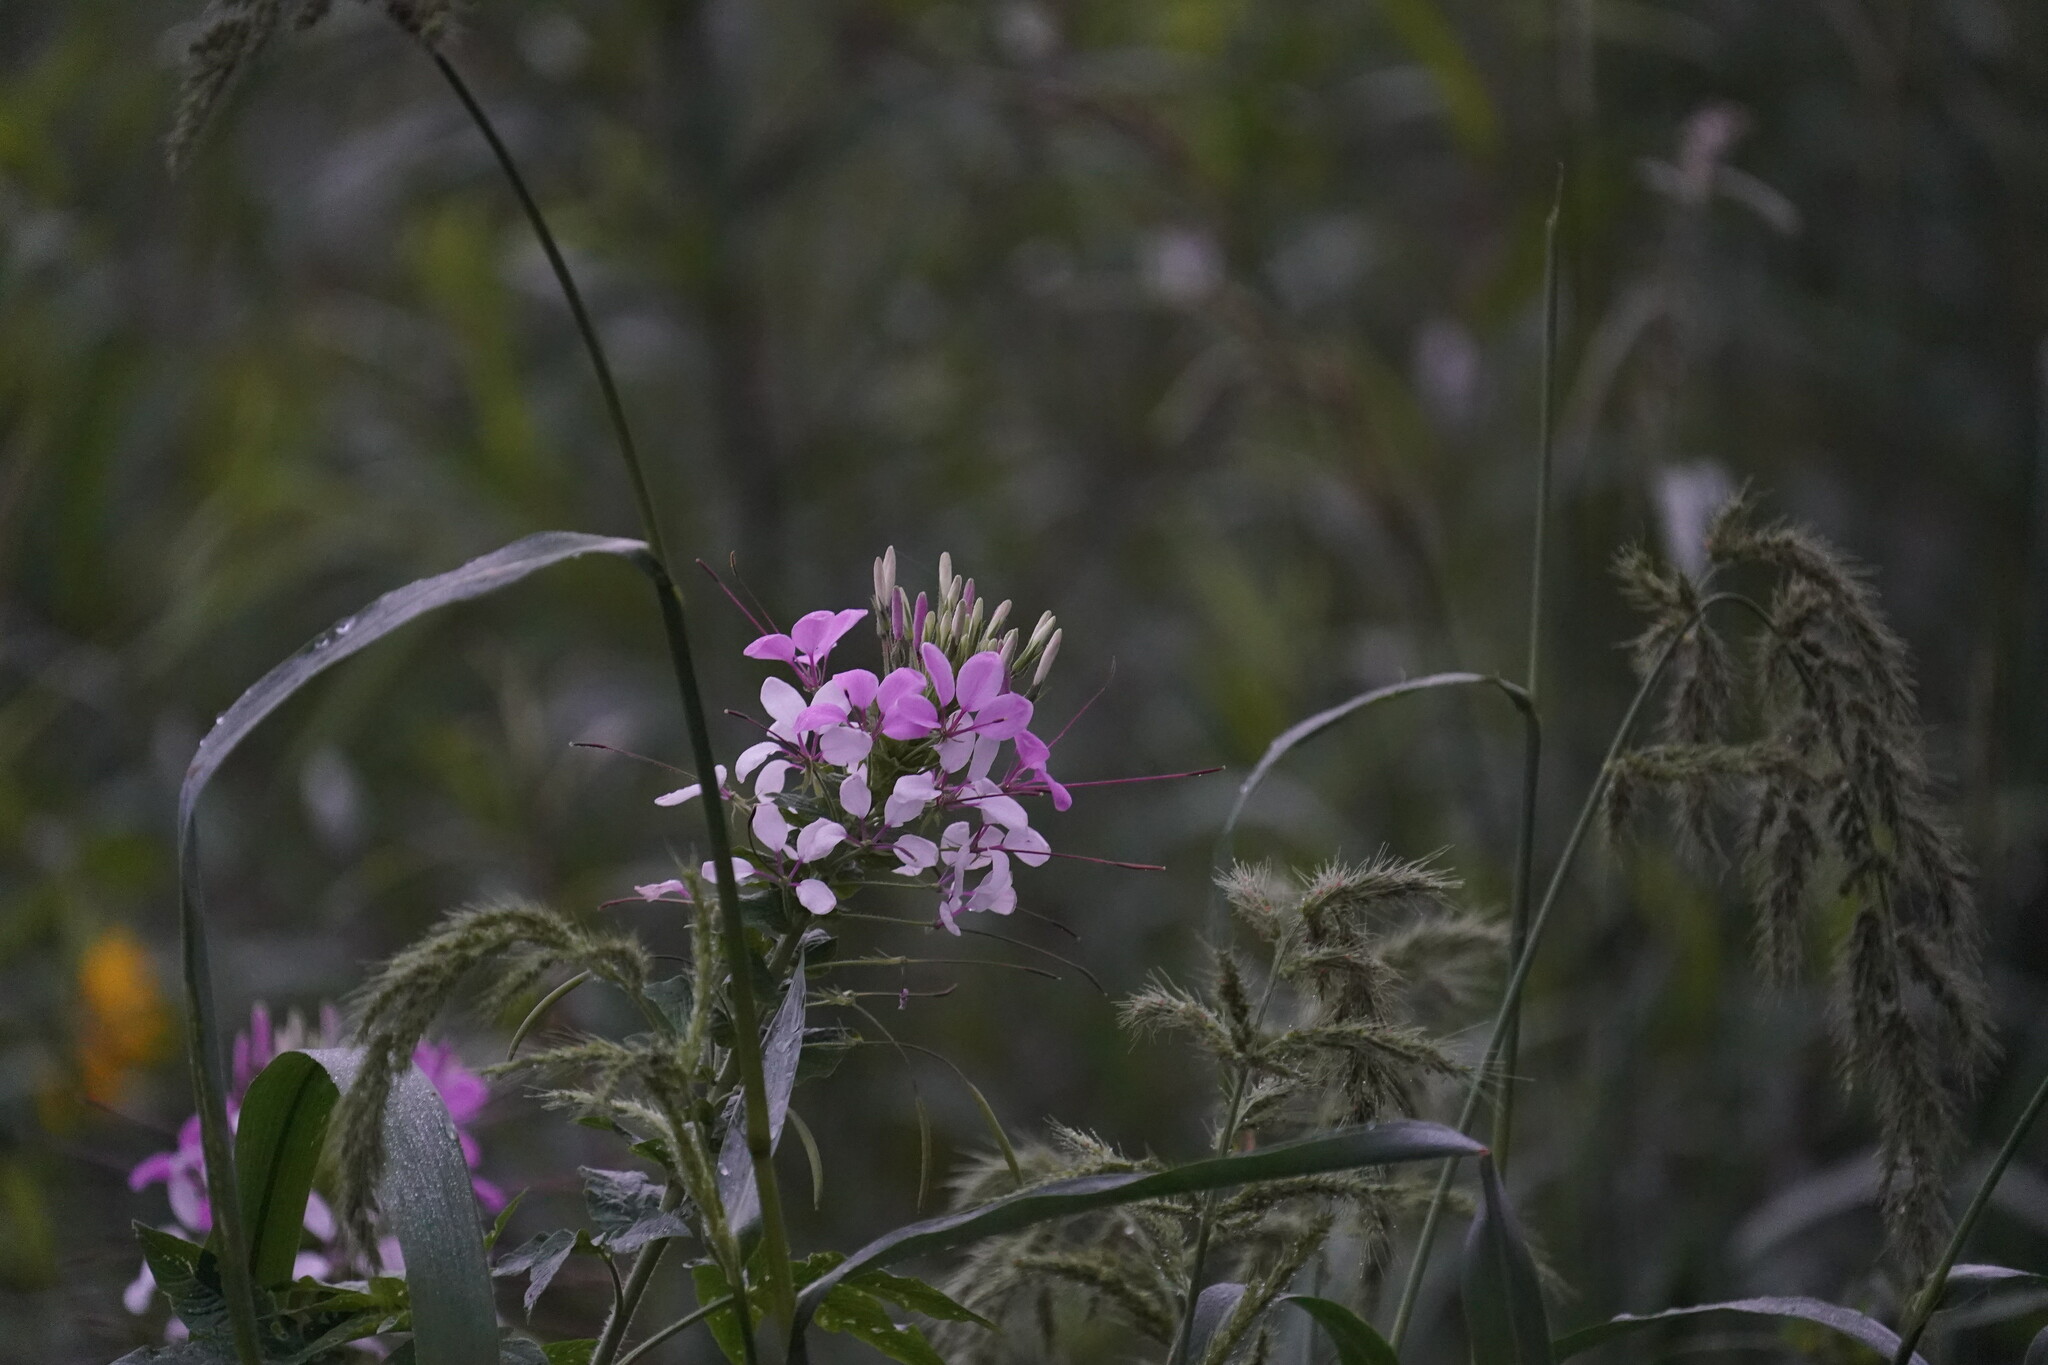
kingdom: Plantae
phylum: Tracheophyta
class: Magnoliopsida
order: Brassicales
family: Cleomaceae
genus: Tarenaya
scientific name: Tarenaya houtteana
